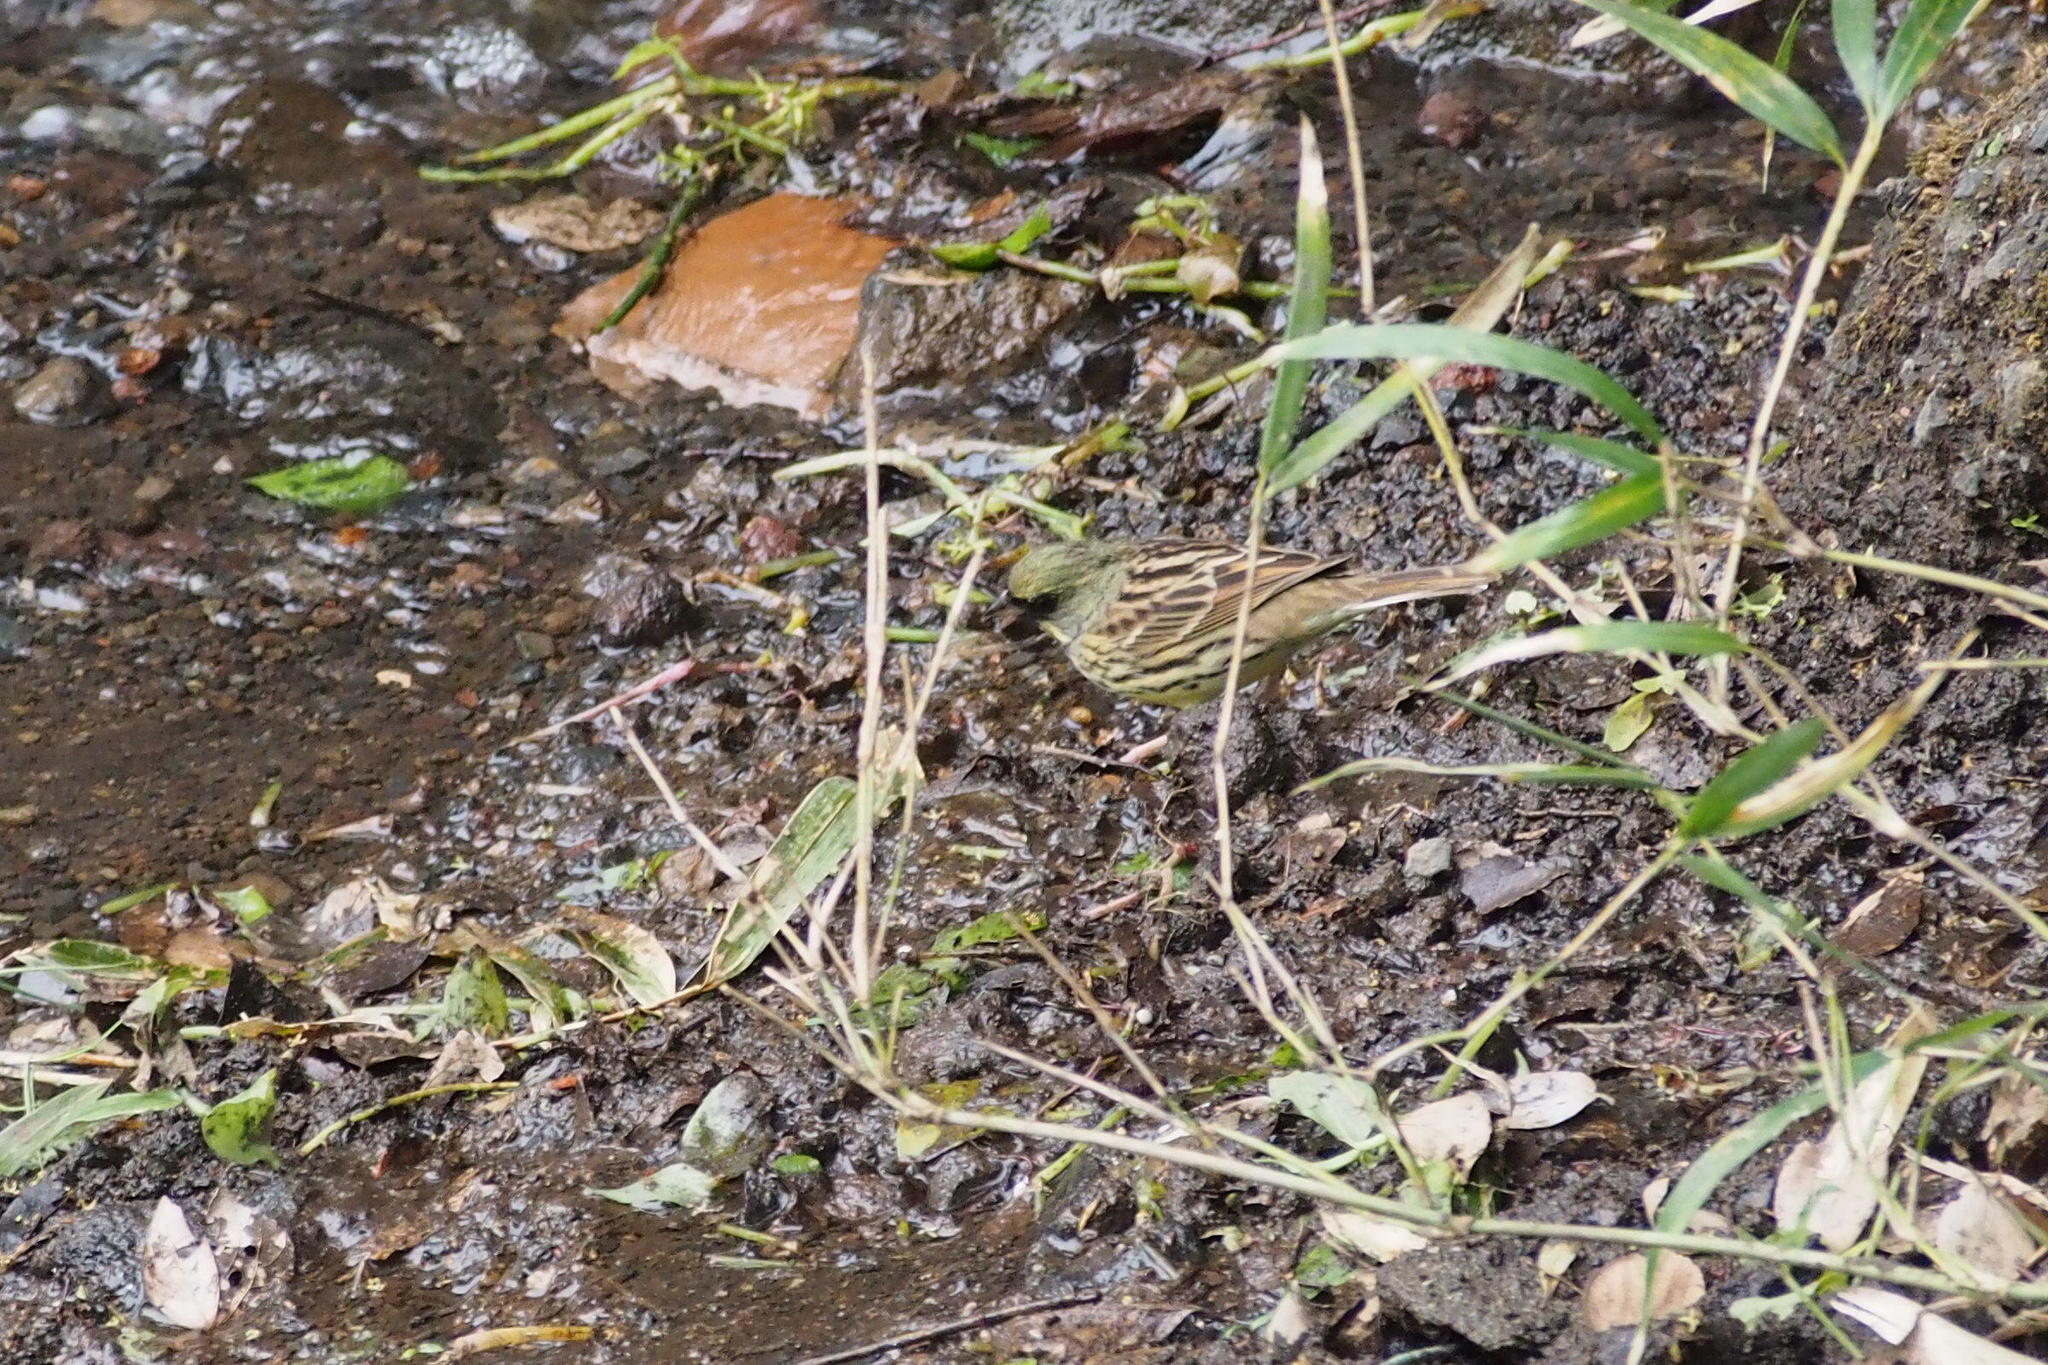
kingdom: Animalia
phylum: Chordata
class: Aves
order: Passeriformes
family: Emberizidae
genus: Emberiza
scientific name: Emberiza personata
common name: Masked bunting
